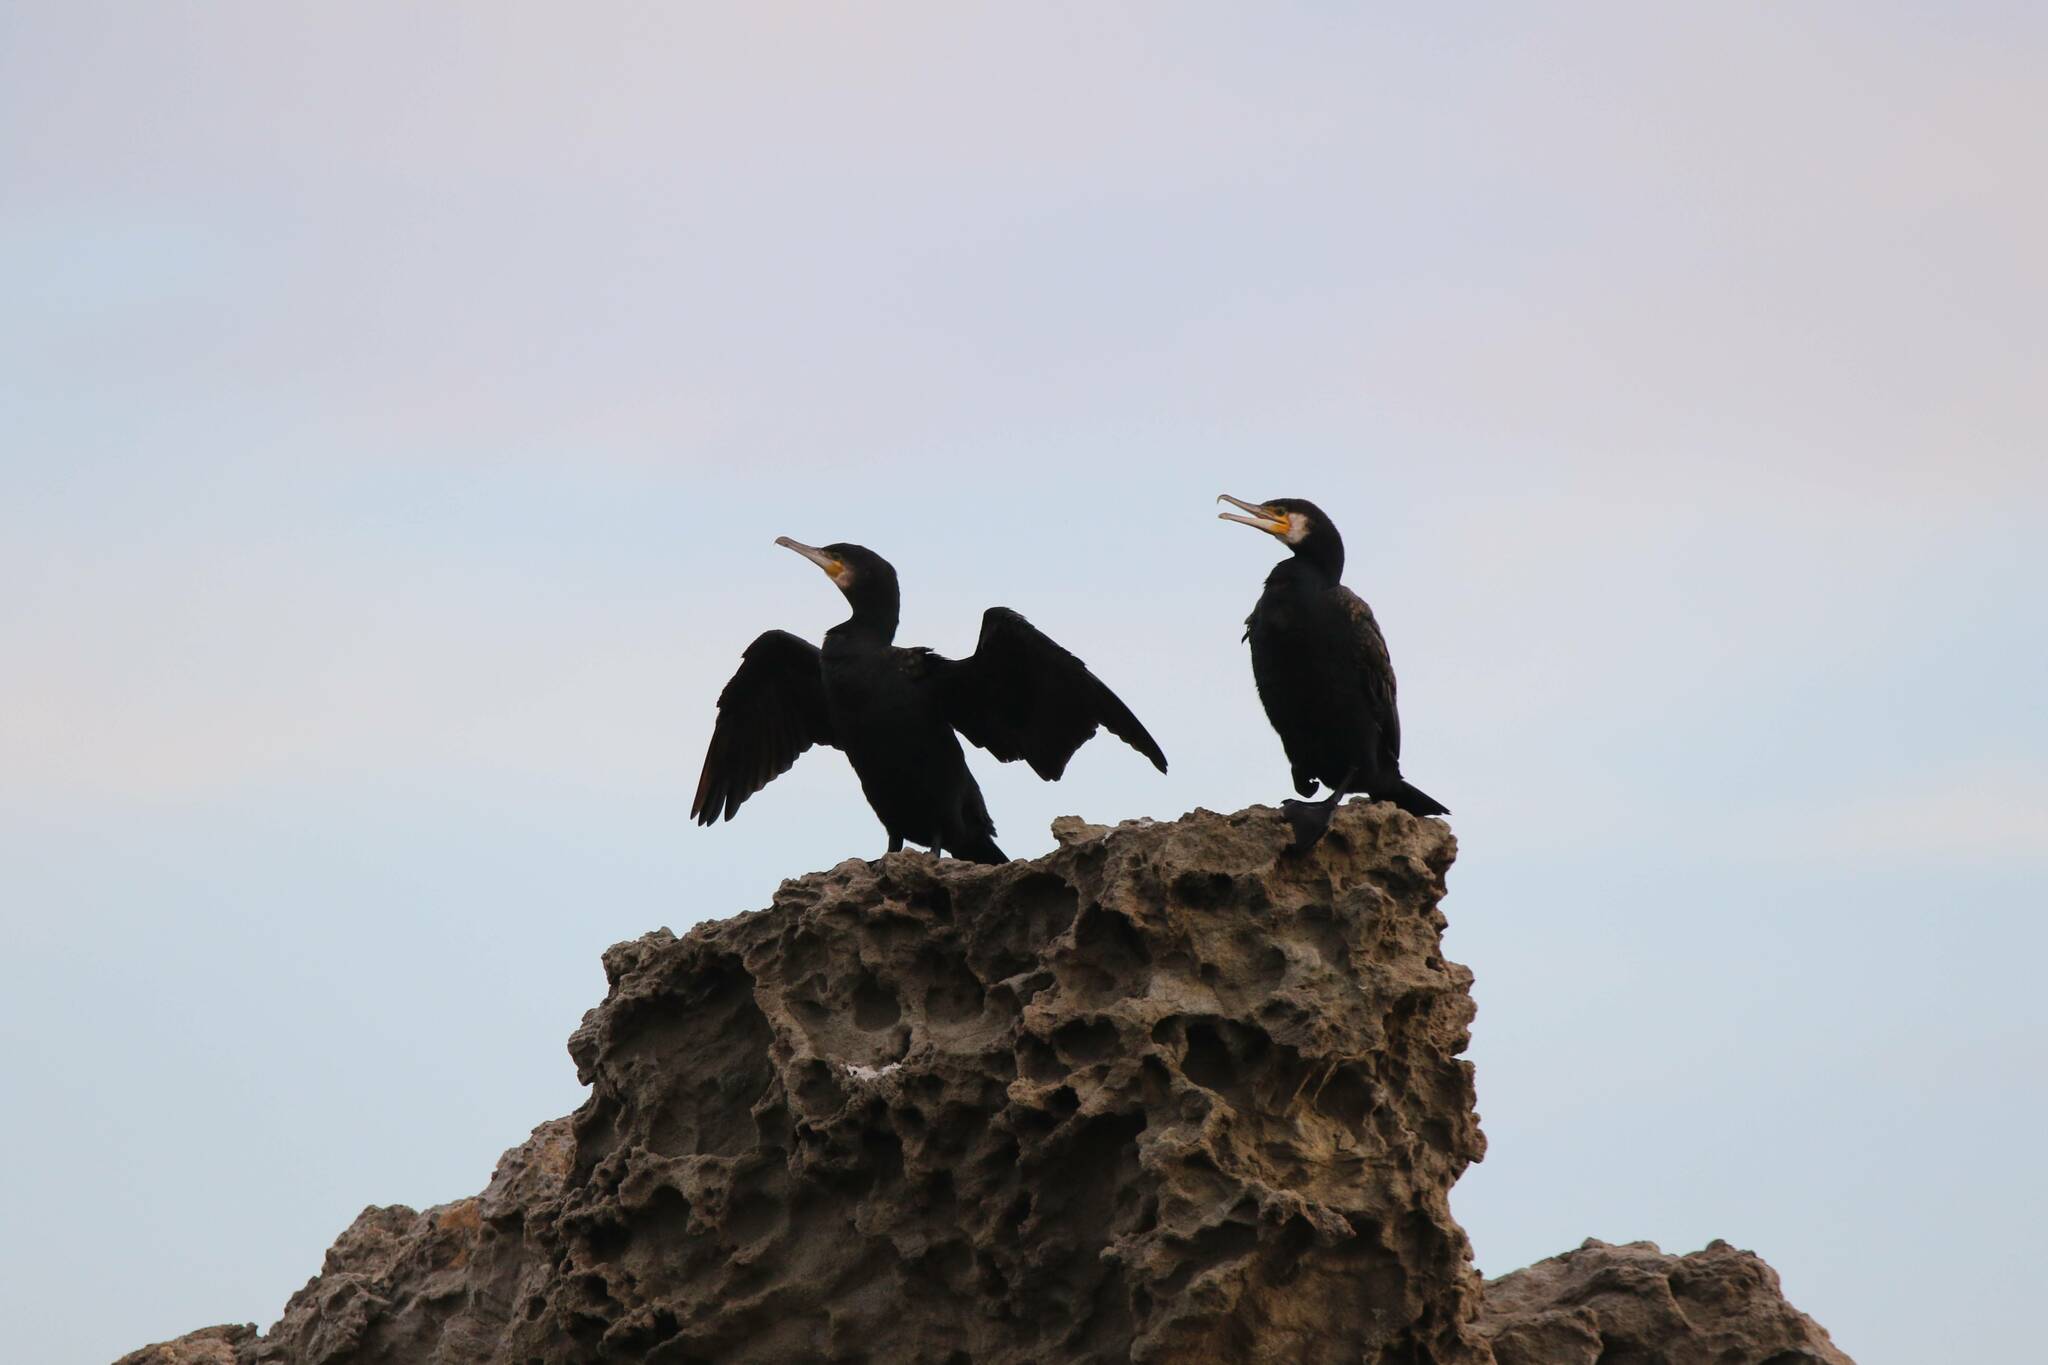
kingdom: Animalia
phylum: Chordata
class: Aves
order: Suliformes
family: Phalacrocoracidae
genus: Phalacrocorax
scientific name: Phalacrocorax carbo
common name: Great cormorant
